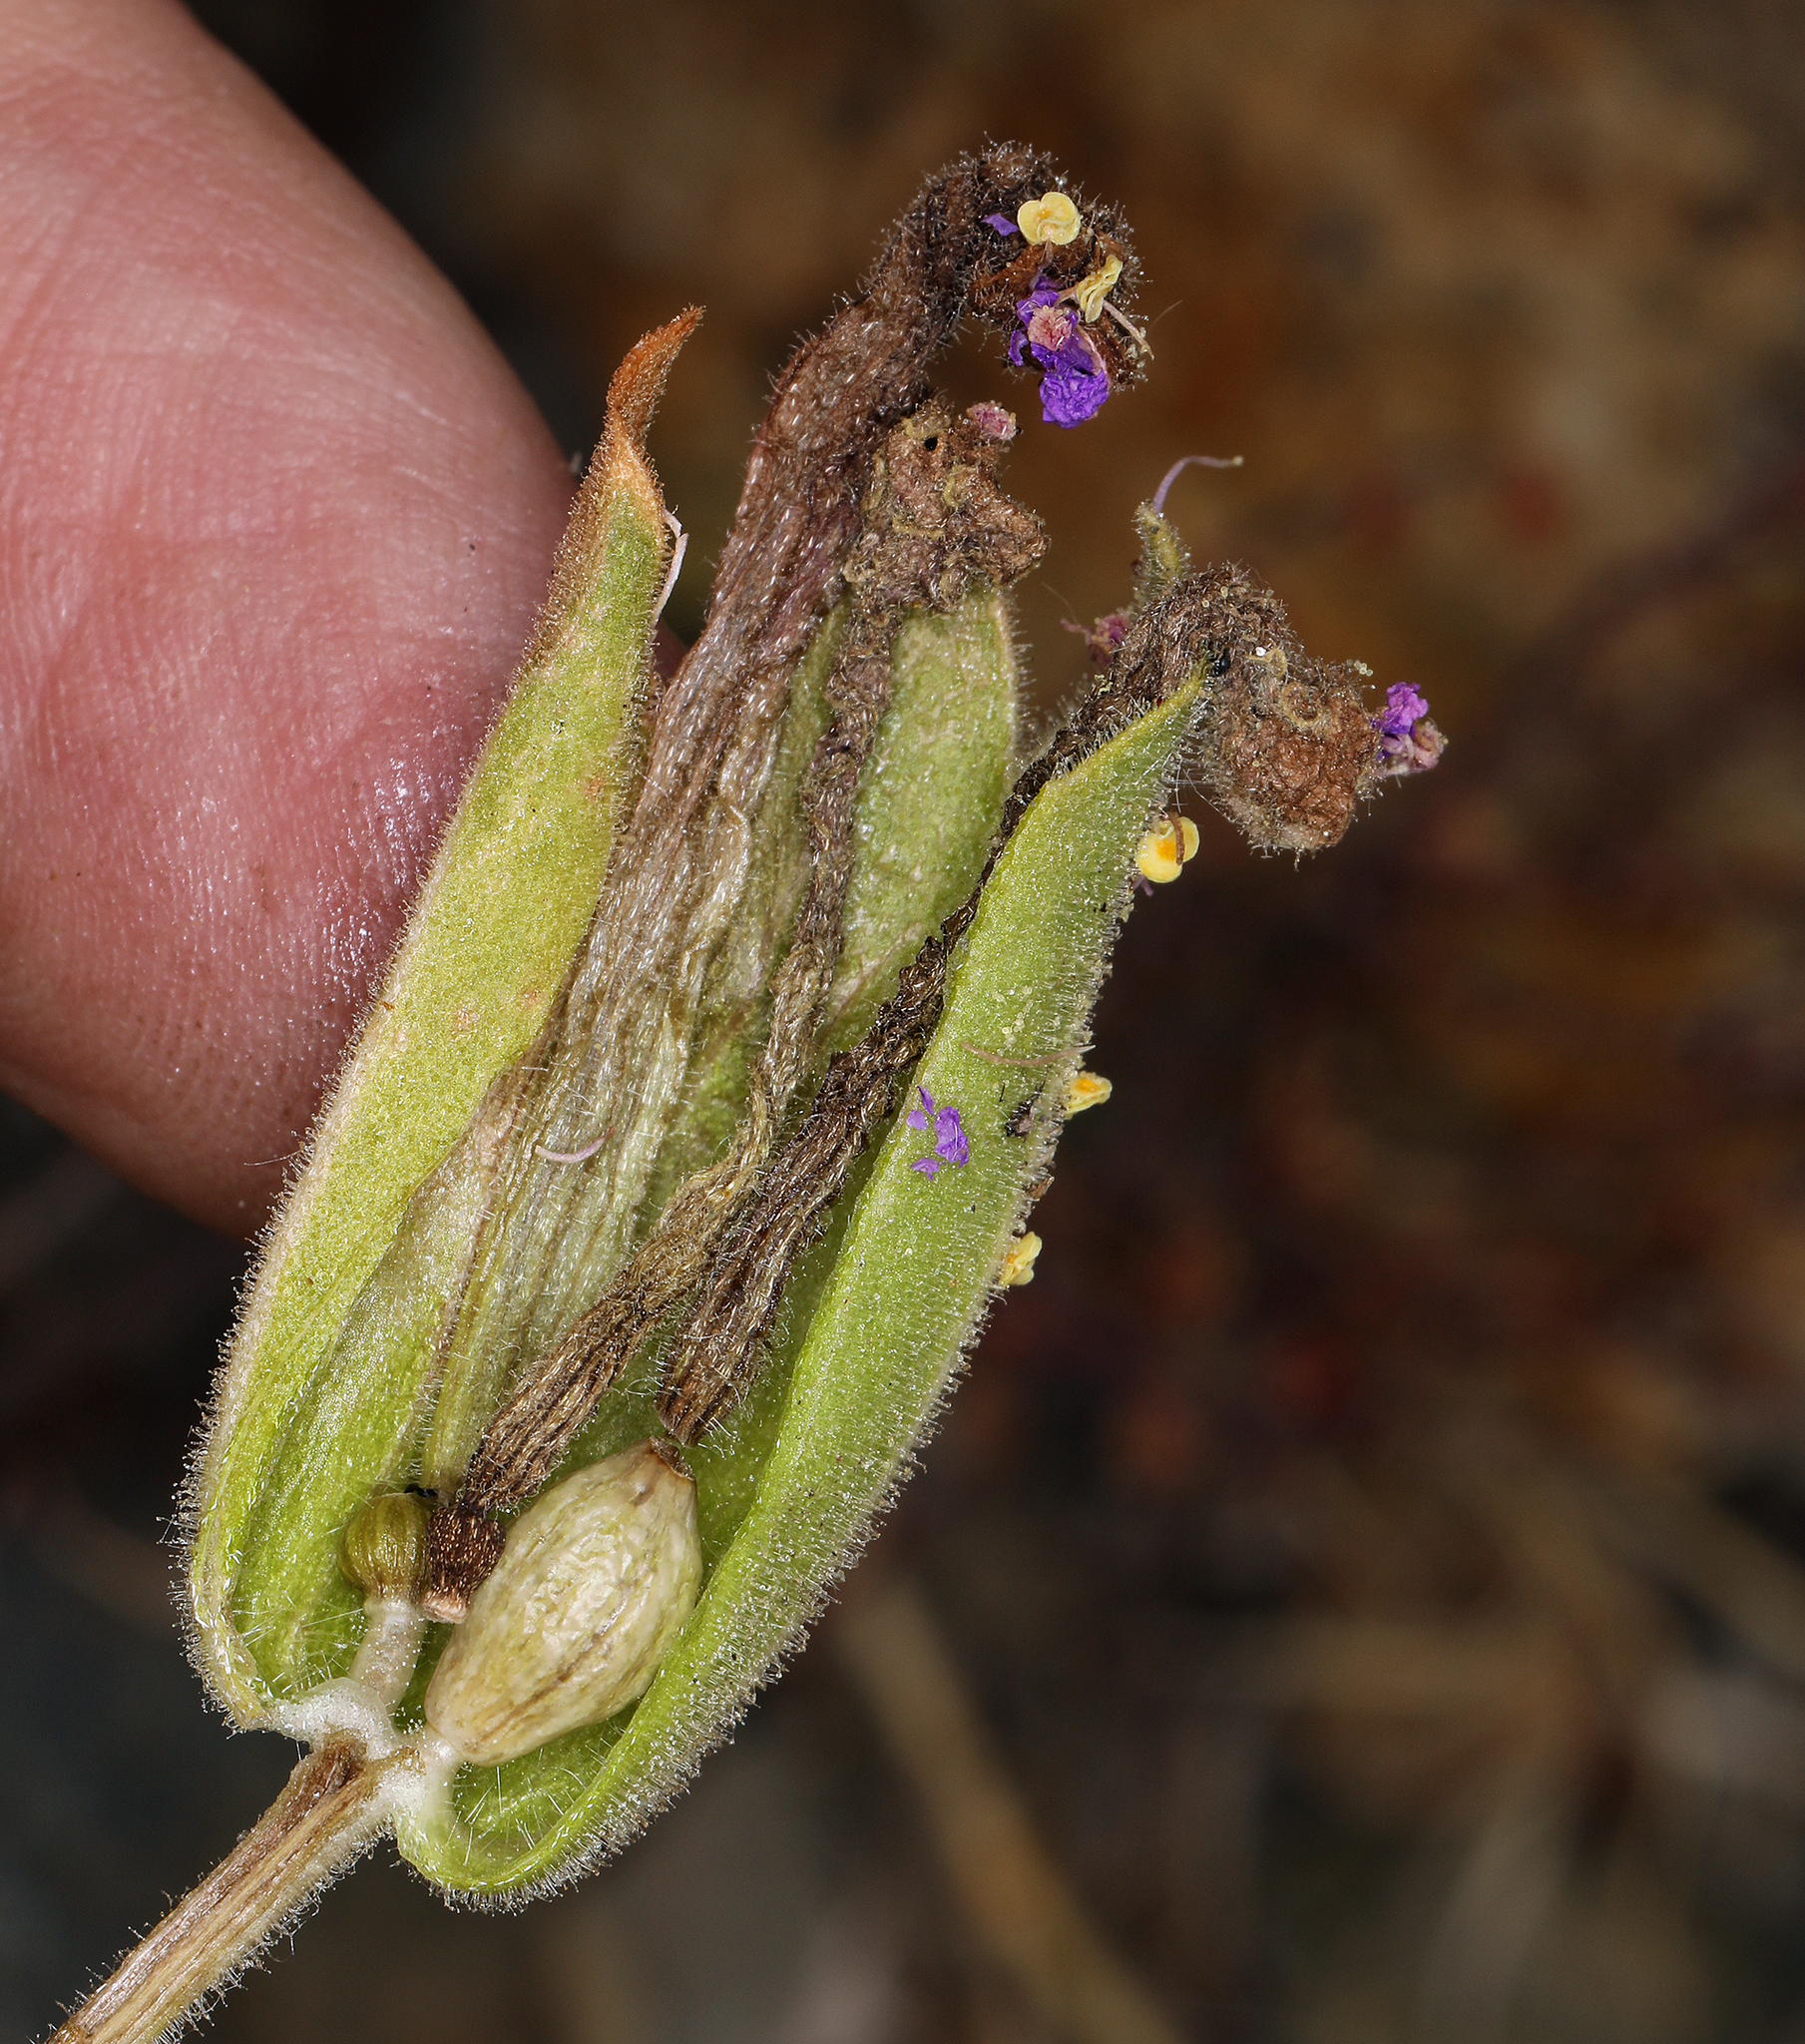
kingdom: Plantae
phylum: Tracheophyta
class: Magnoliopsida
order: Caryophyllales
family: Nyctaginaceae
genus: Mirabilis
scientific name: Mirabilis multiflora
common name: Froebel's four-o'clock
